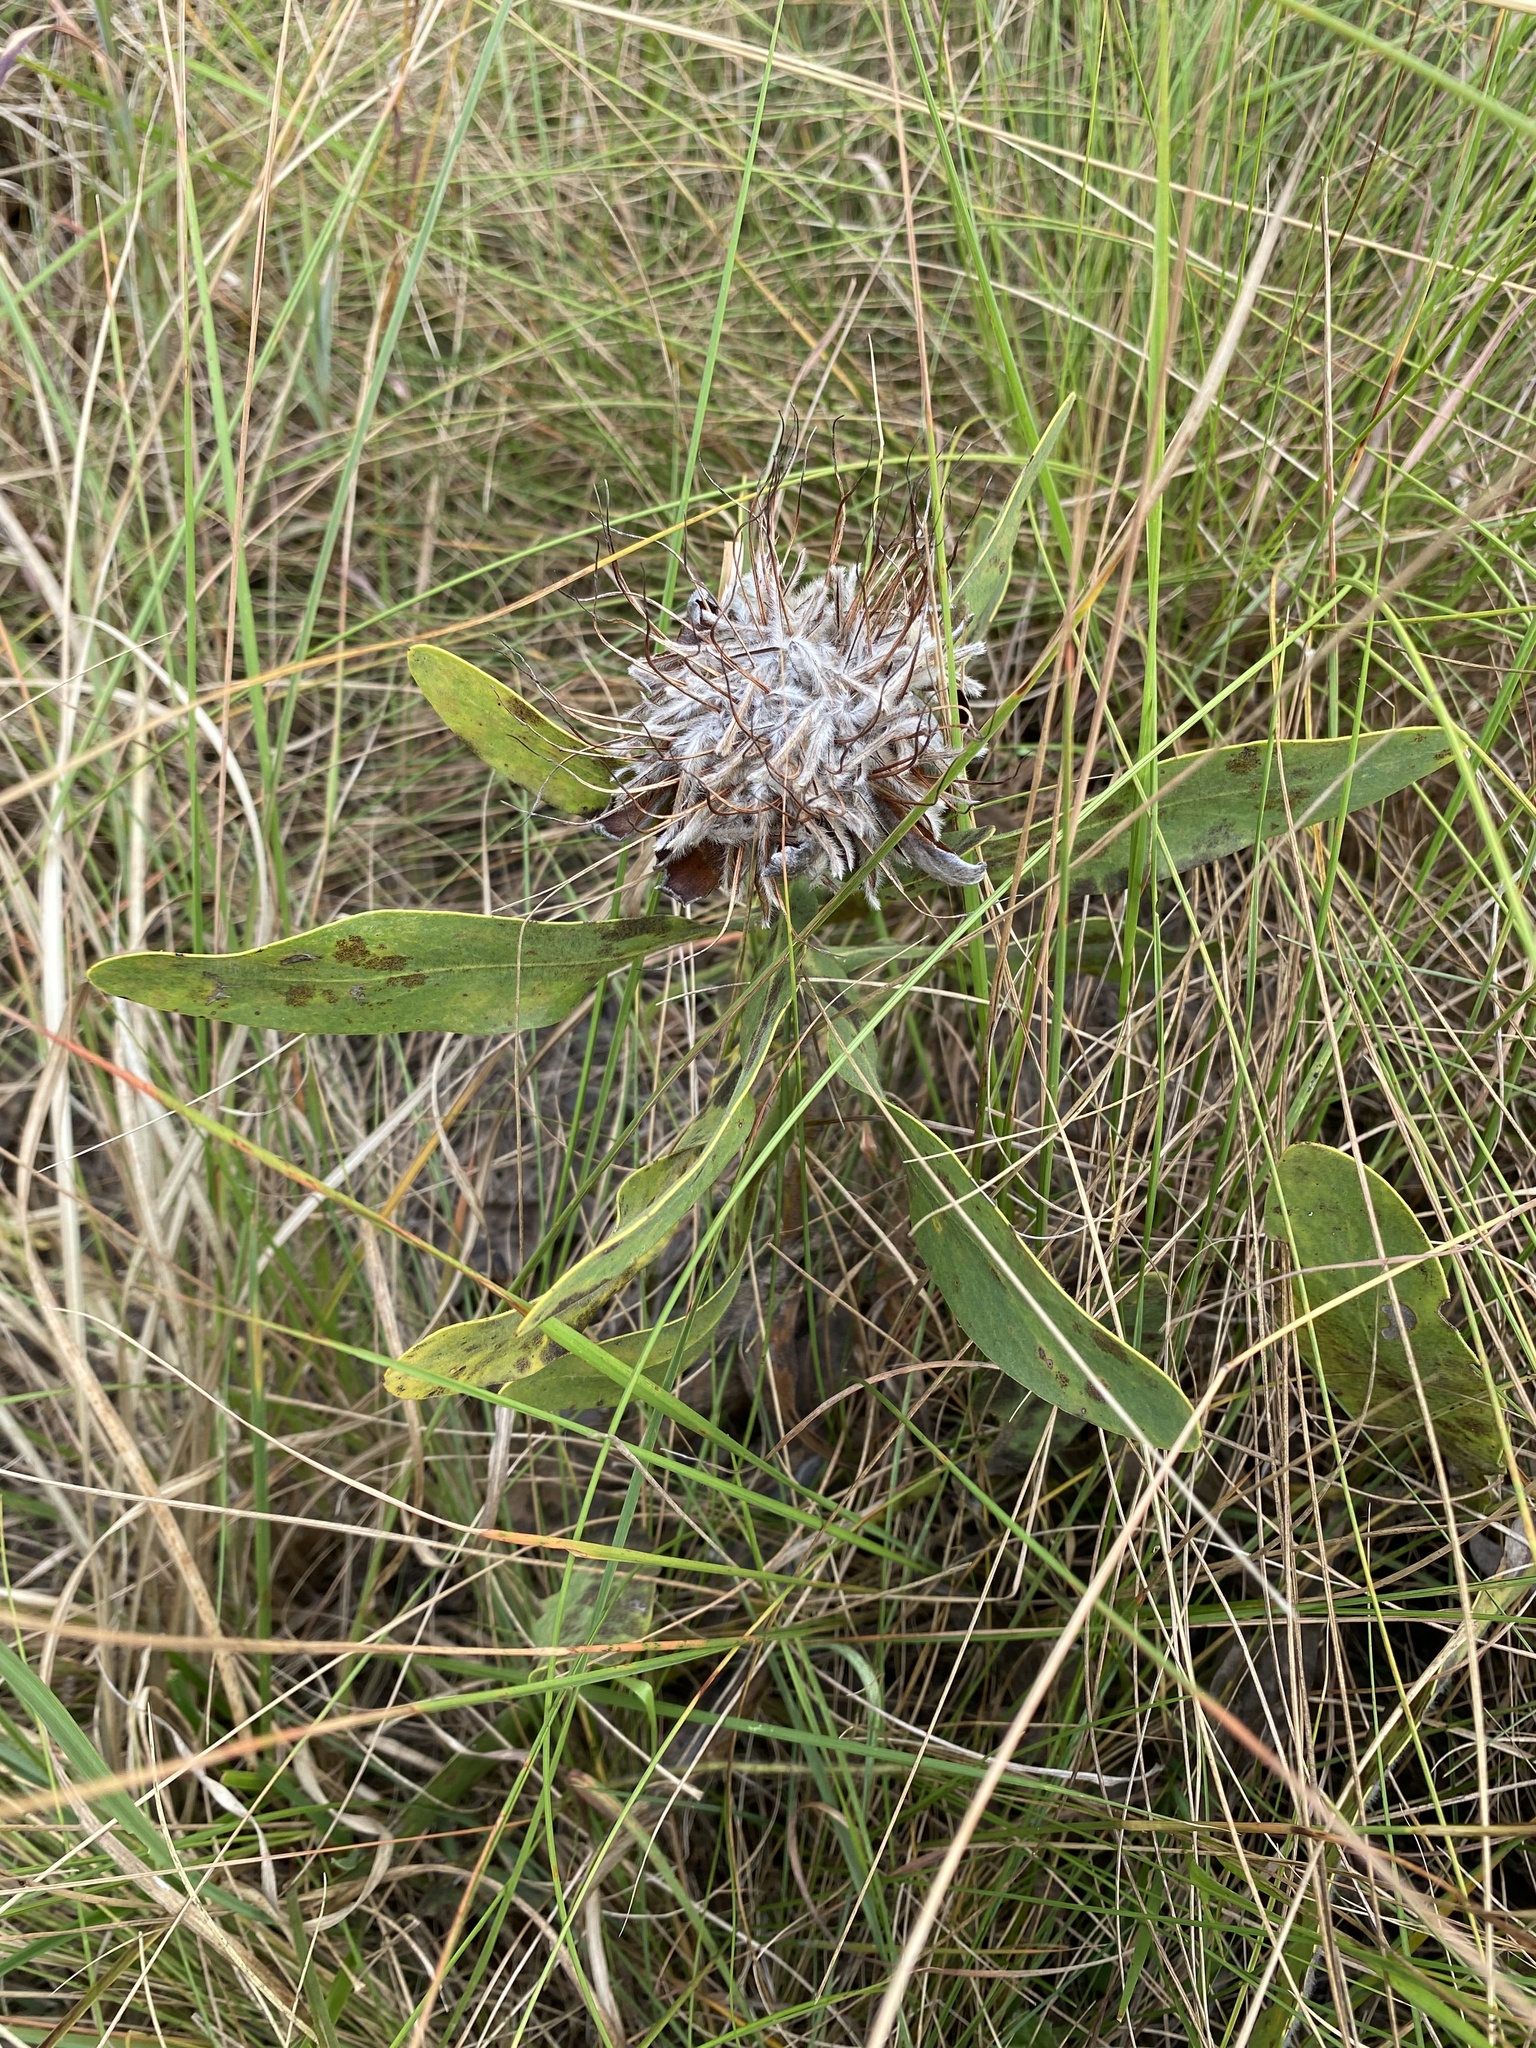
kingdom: Plantae
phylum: Tracheophyta
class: Magnoliopsida
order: Proteales
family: Proteaceae
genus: Protea
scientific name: Protea welwitschii
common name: Cluster-head protea
